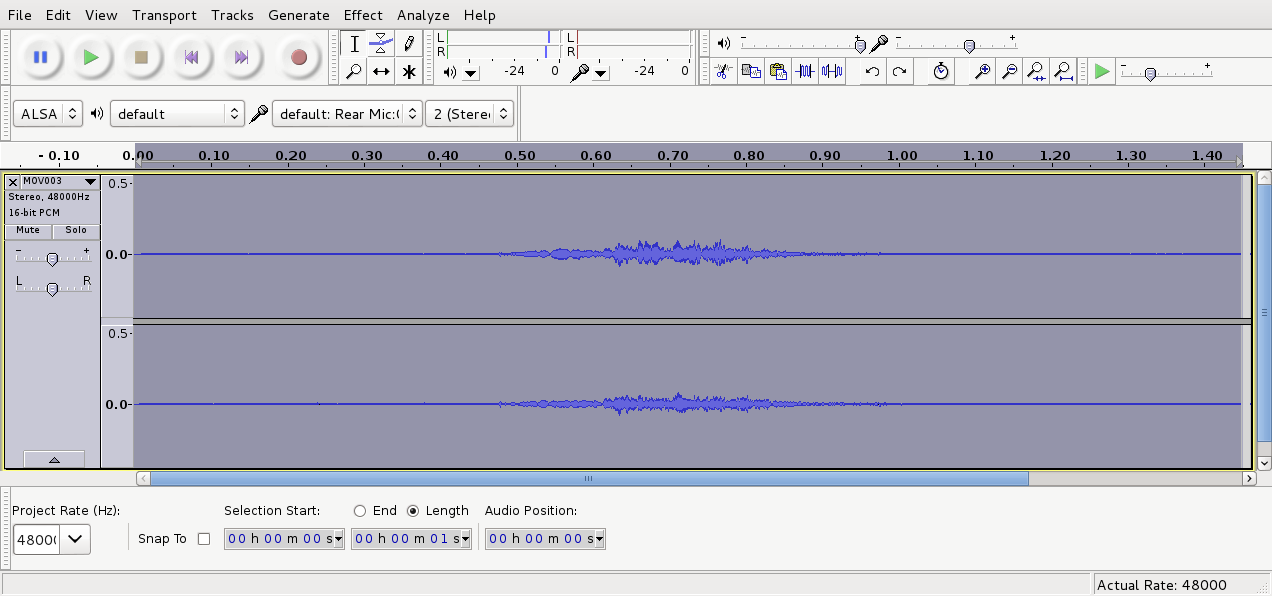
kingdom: Animalia
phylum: Chordata
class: Aves
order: Psittaciformes
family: Psittacidae
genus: Nestor
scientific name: Nestor meridionalis
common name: New zealand kaka
